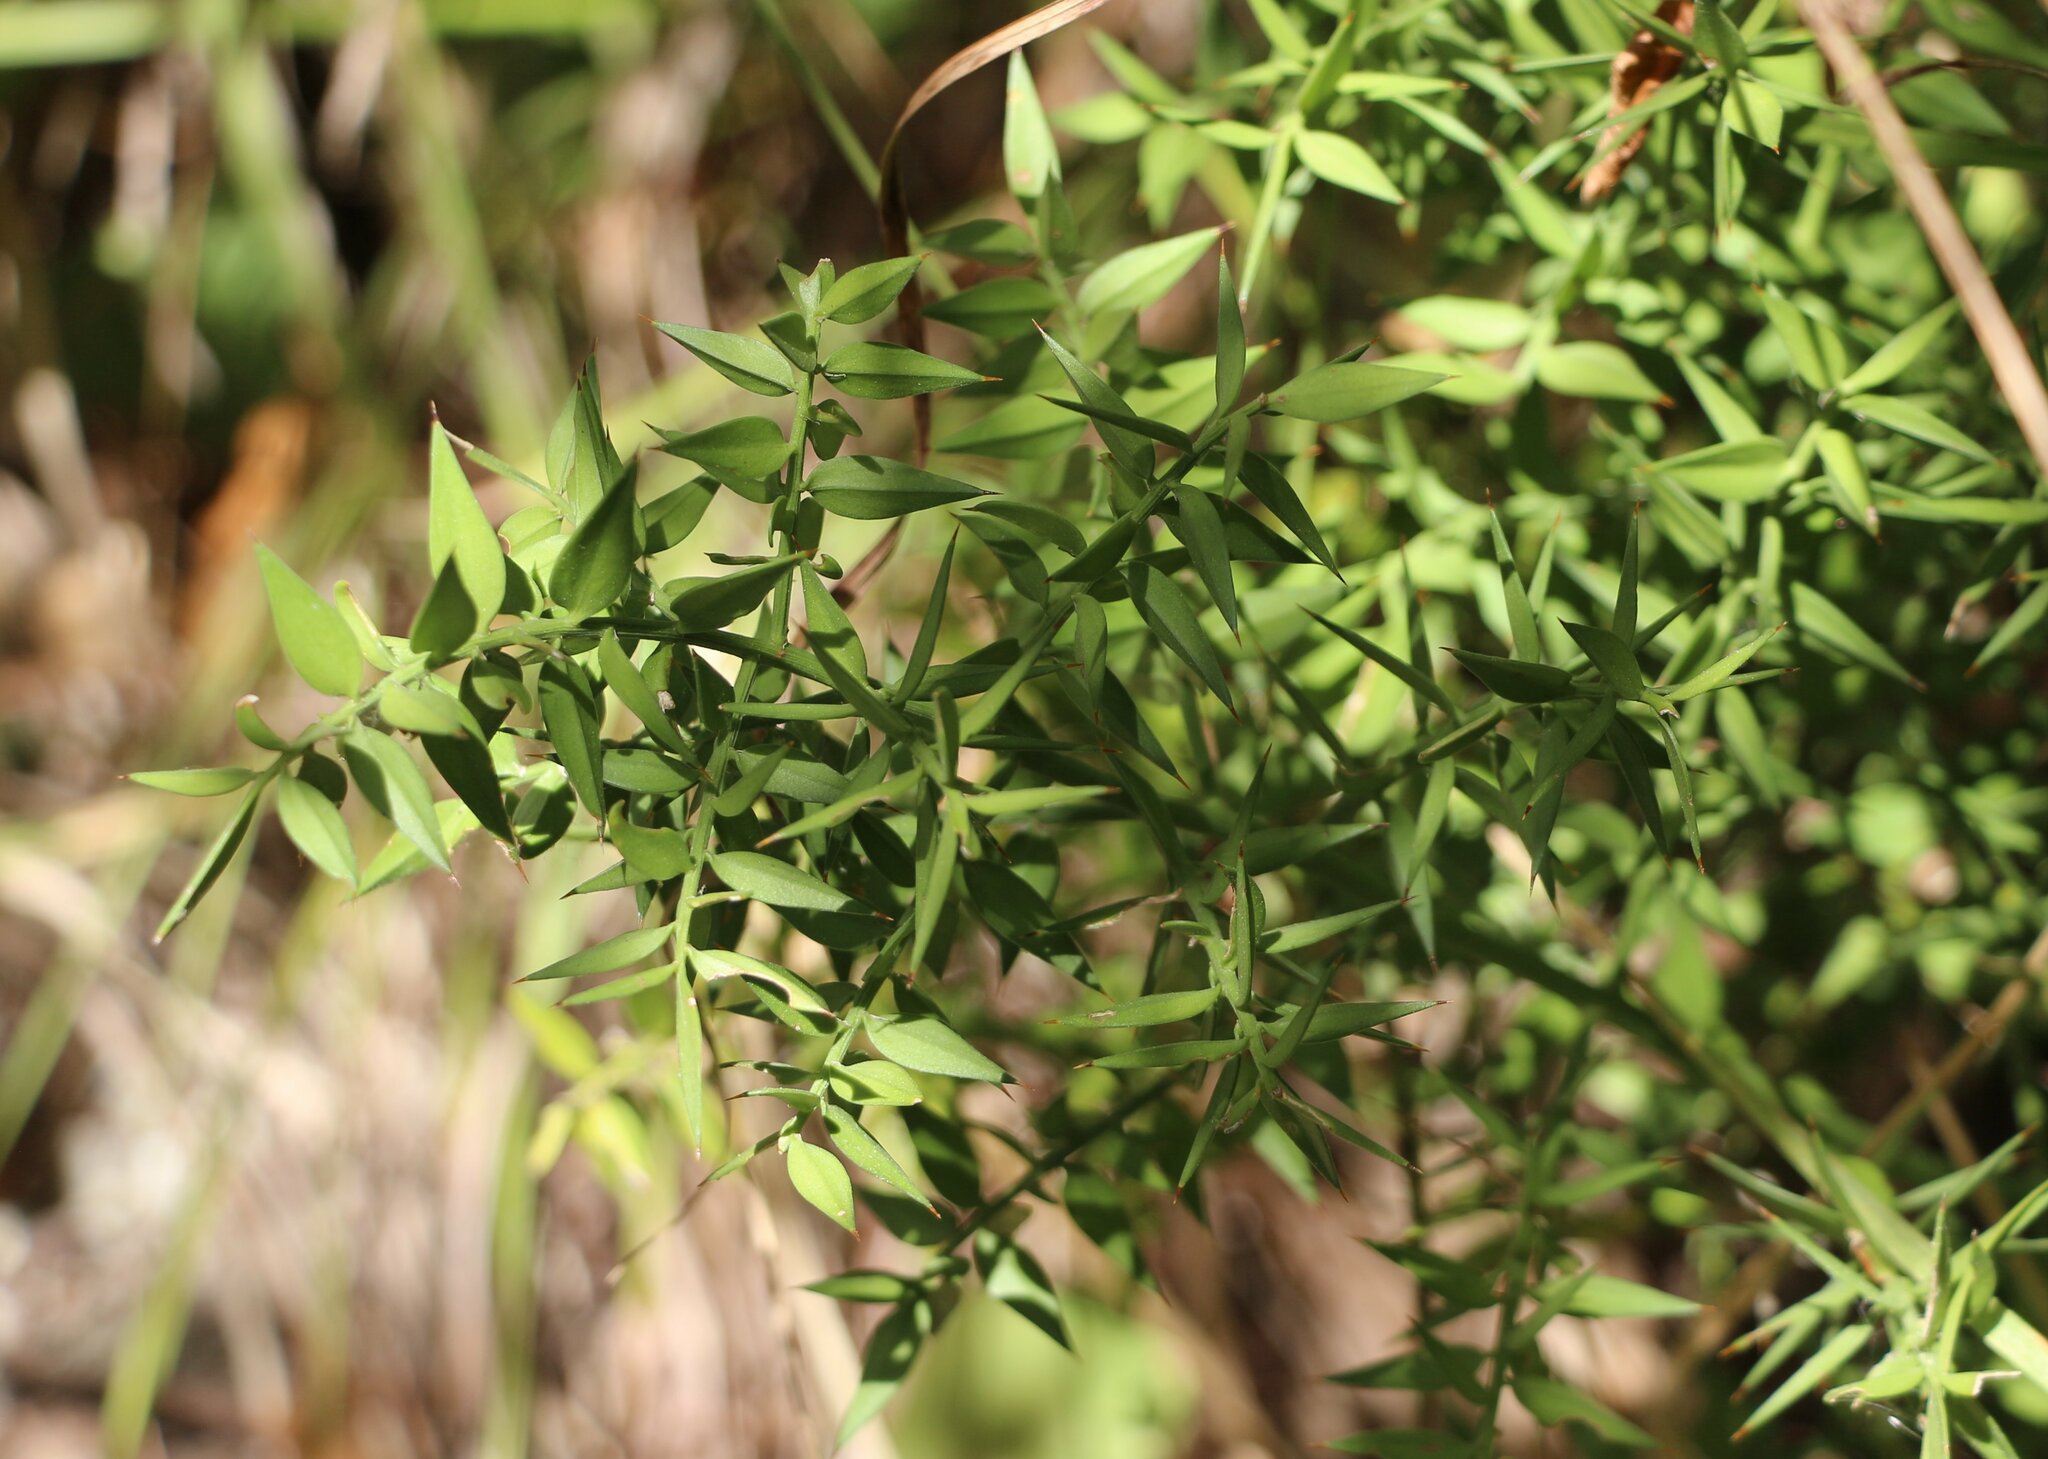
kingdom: Plantae
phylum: Tracheophyta
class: Liliopsida
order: Asparagales
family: Asparagaceae
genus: Ruscus
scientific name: Ruscus aculeatus
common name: Butcher's-broom
